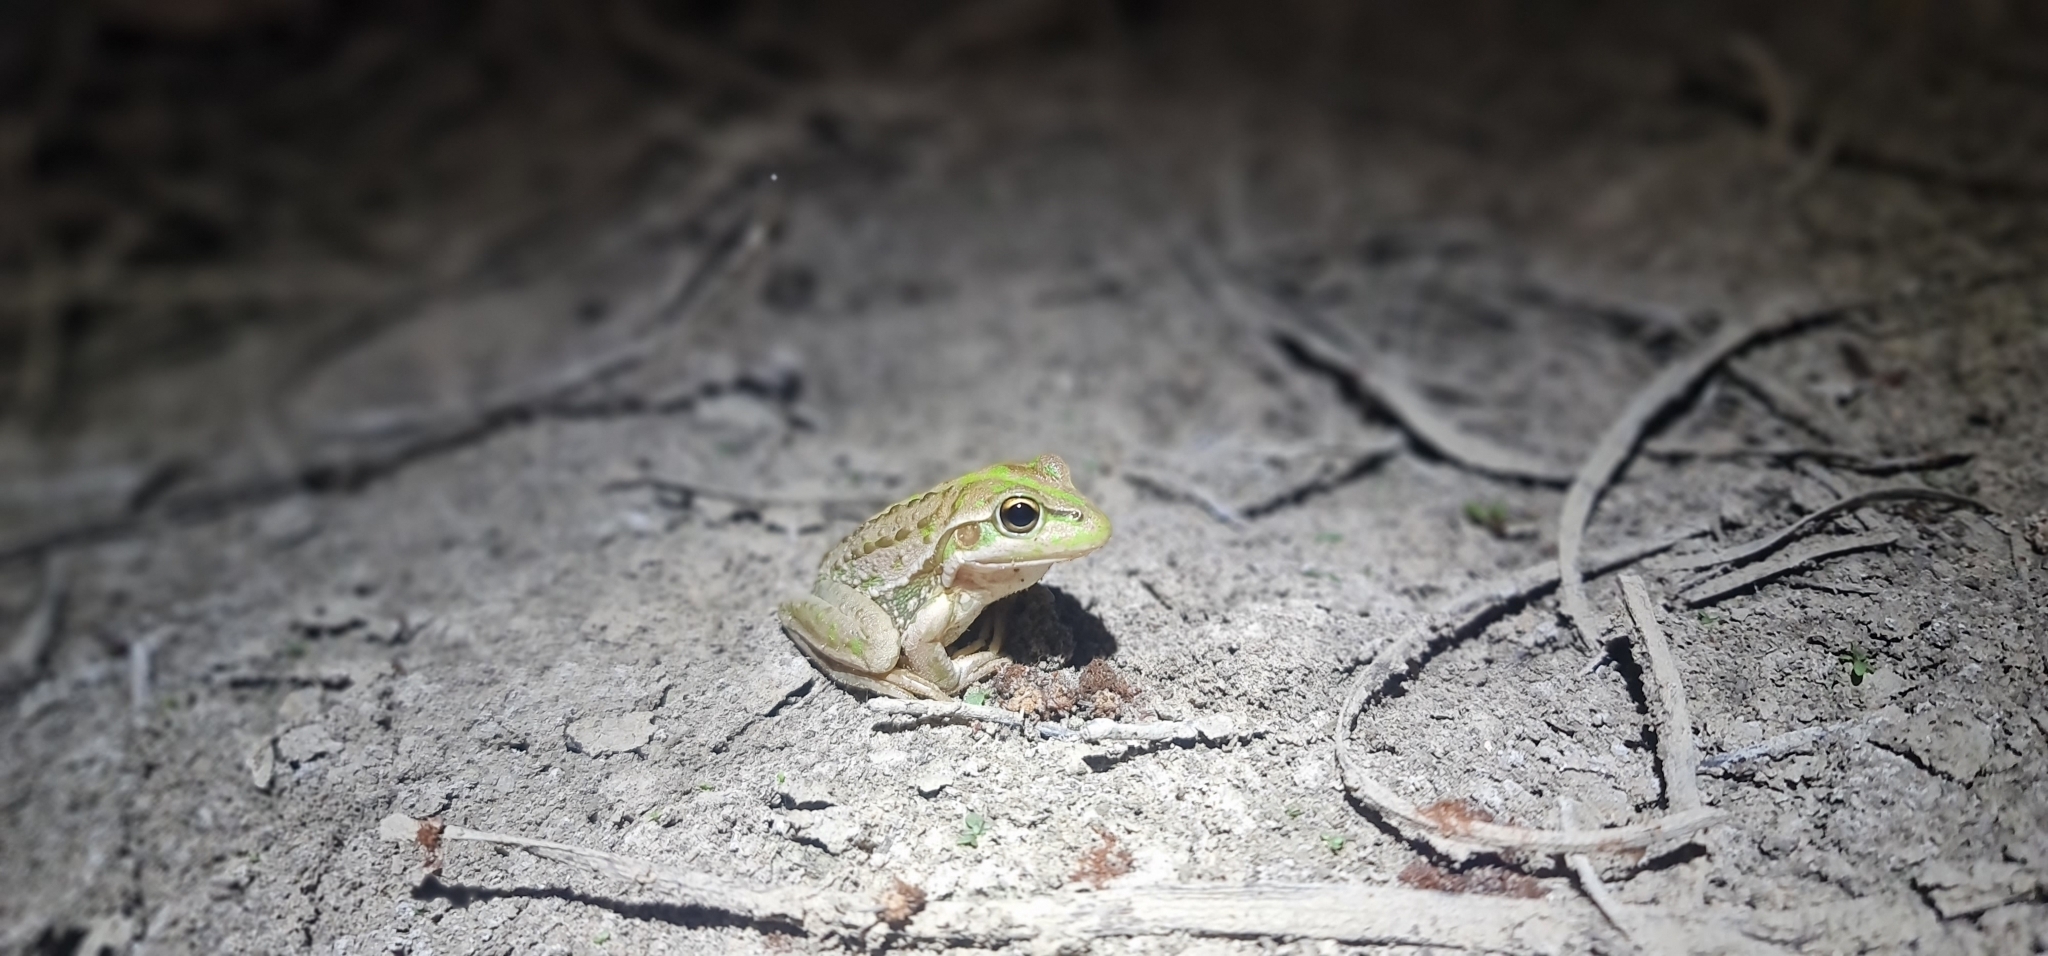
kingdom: Animalia
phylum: Chordata
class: Amphibia
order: Anura
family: Pelodryadidae
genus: Ranoidea
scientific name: Ranoidea raniformis
